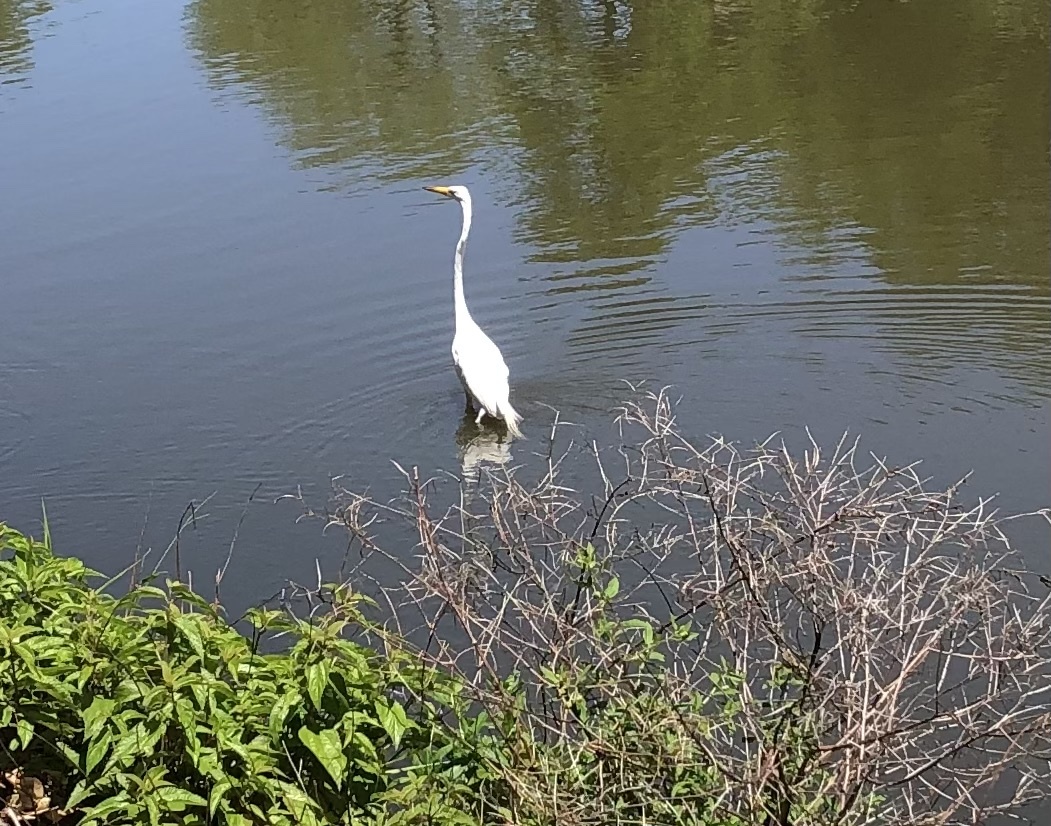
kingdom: Animalia
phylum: Chordata
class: Aves
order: Pelecaniformes
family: Ardeidae
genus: Ardea
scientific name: Ardea alba
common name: Great egret
